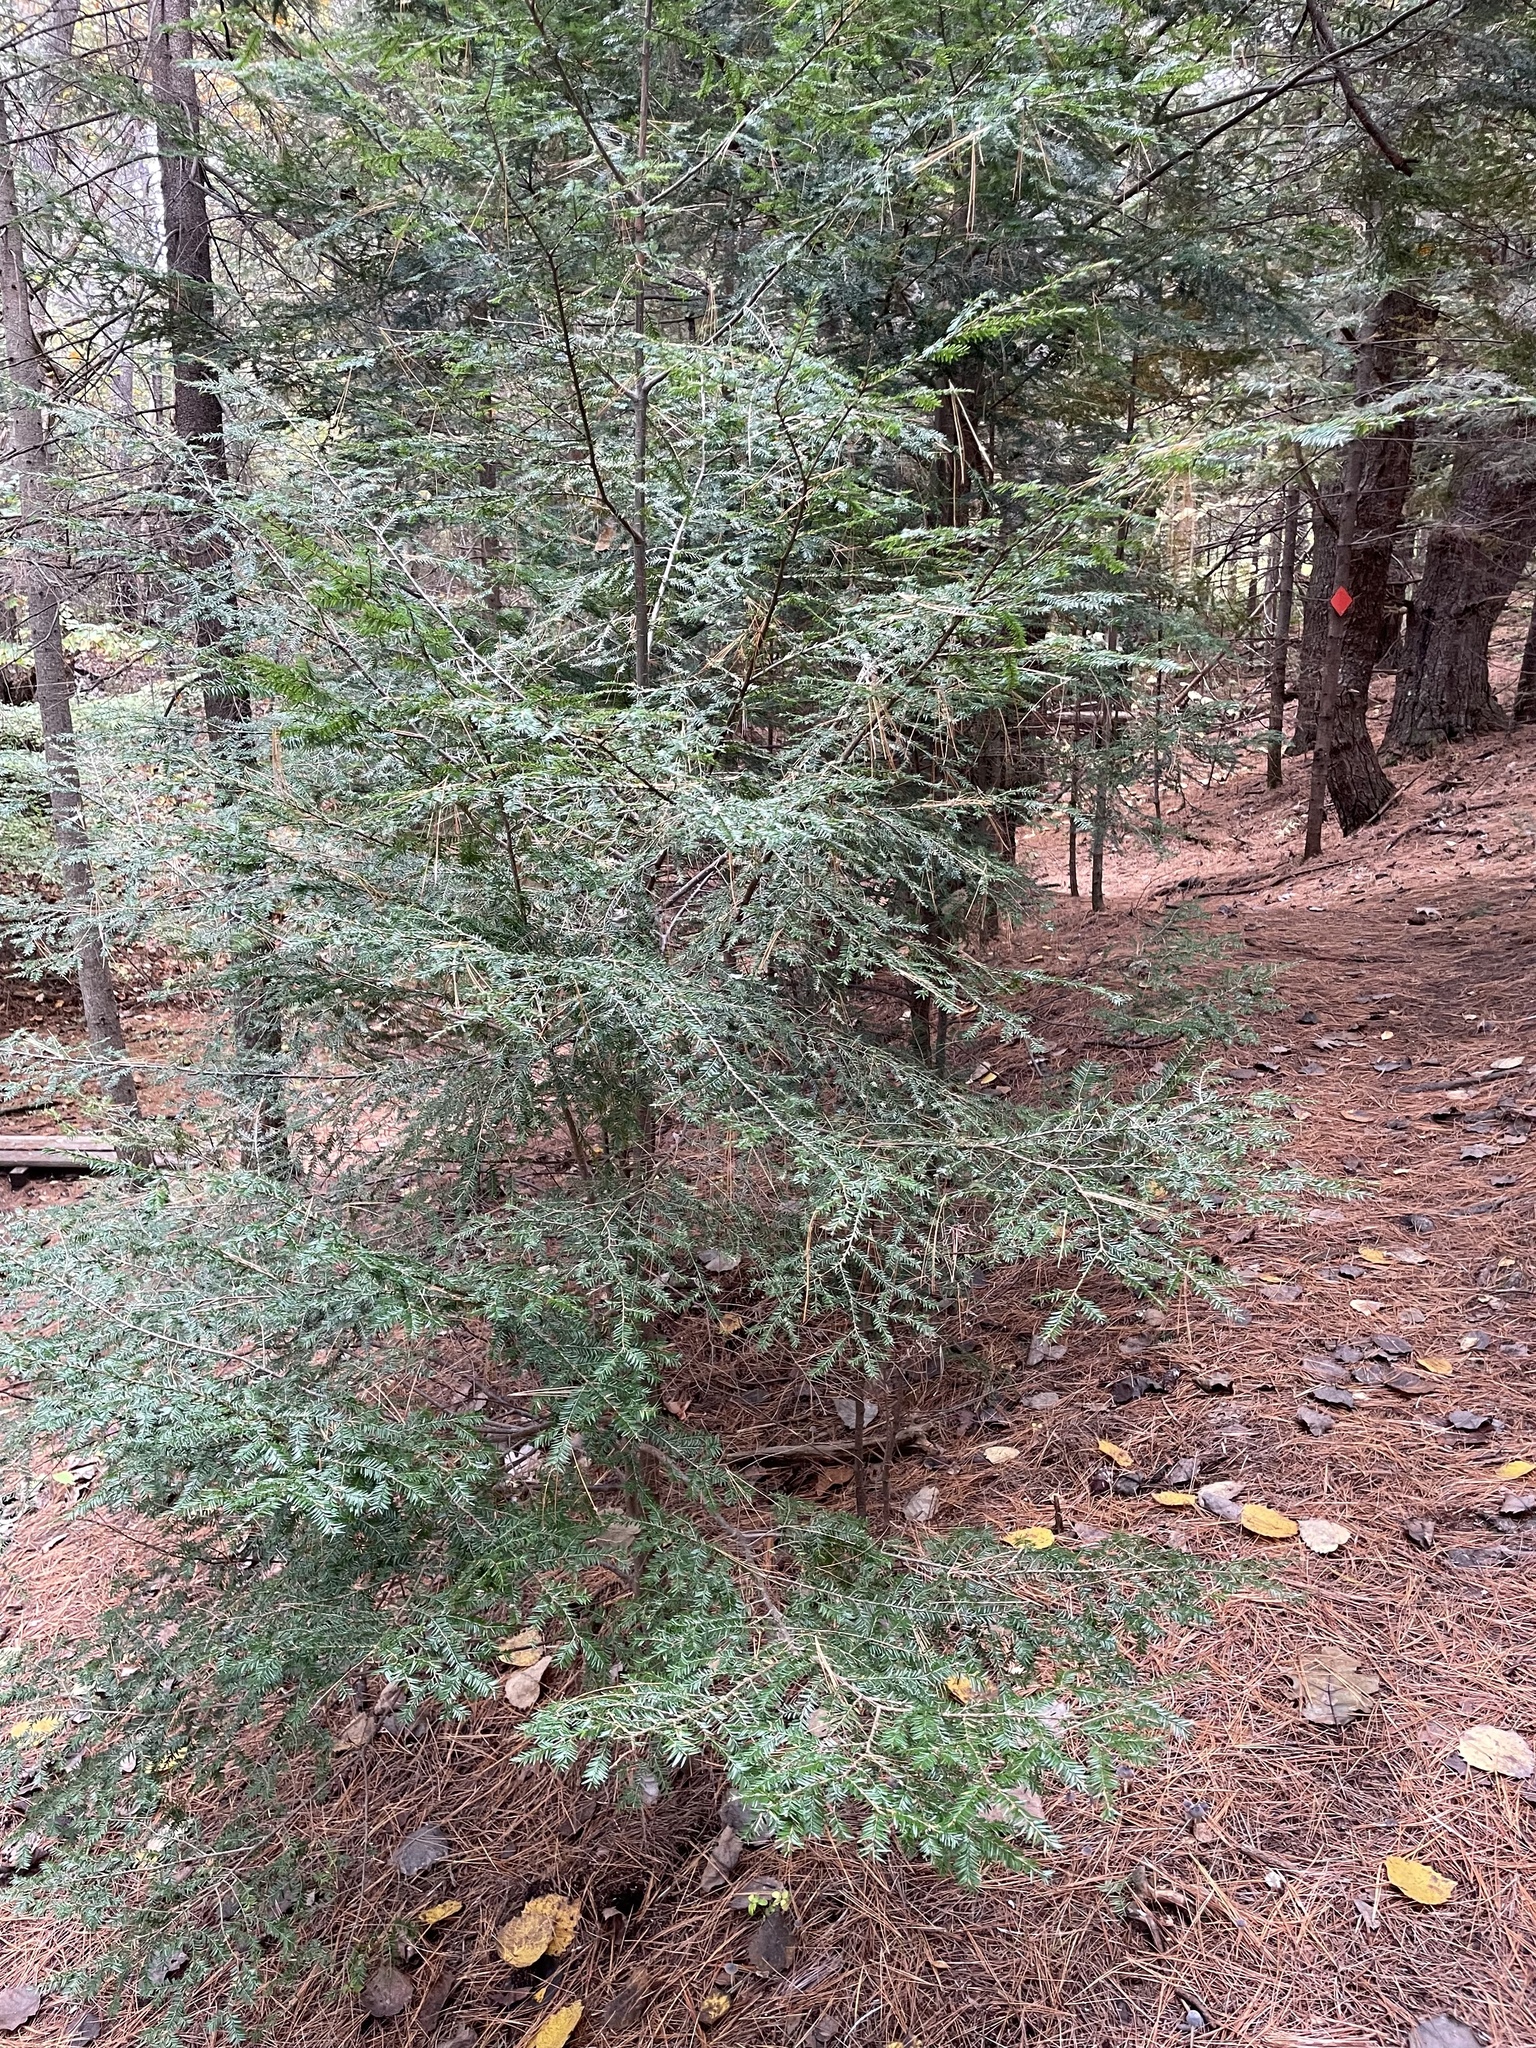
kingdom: Plantae
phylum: Tracheophyta
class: Pinopsida
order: Pinales
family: Pinaceae
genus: Tsuga
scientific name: Tsuga canadensis
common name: Eastern hemlock
